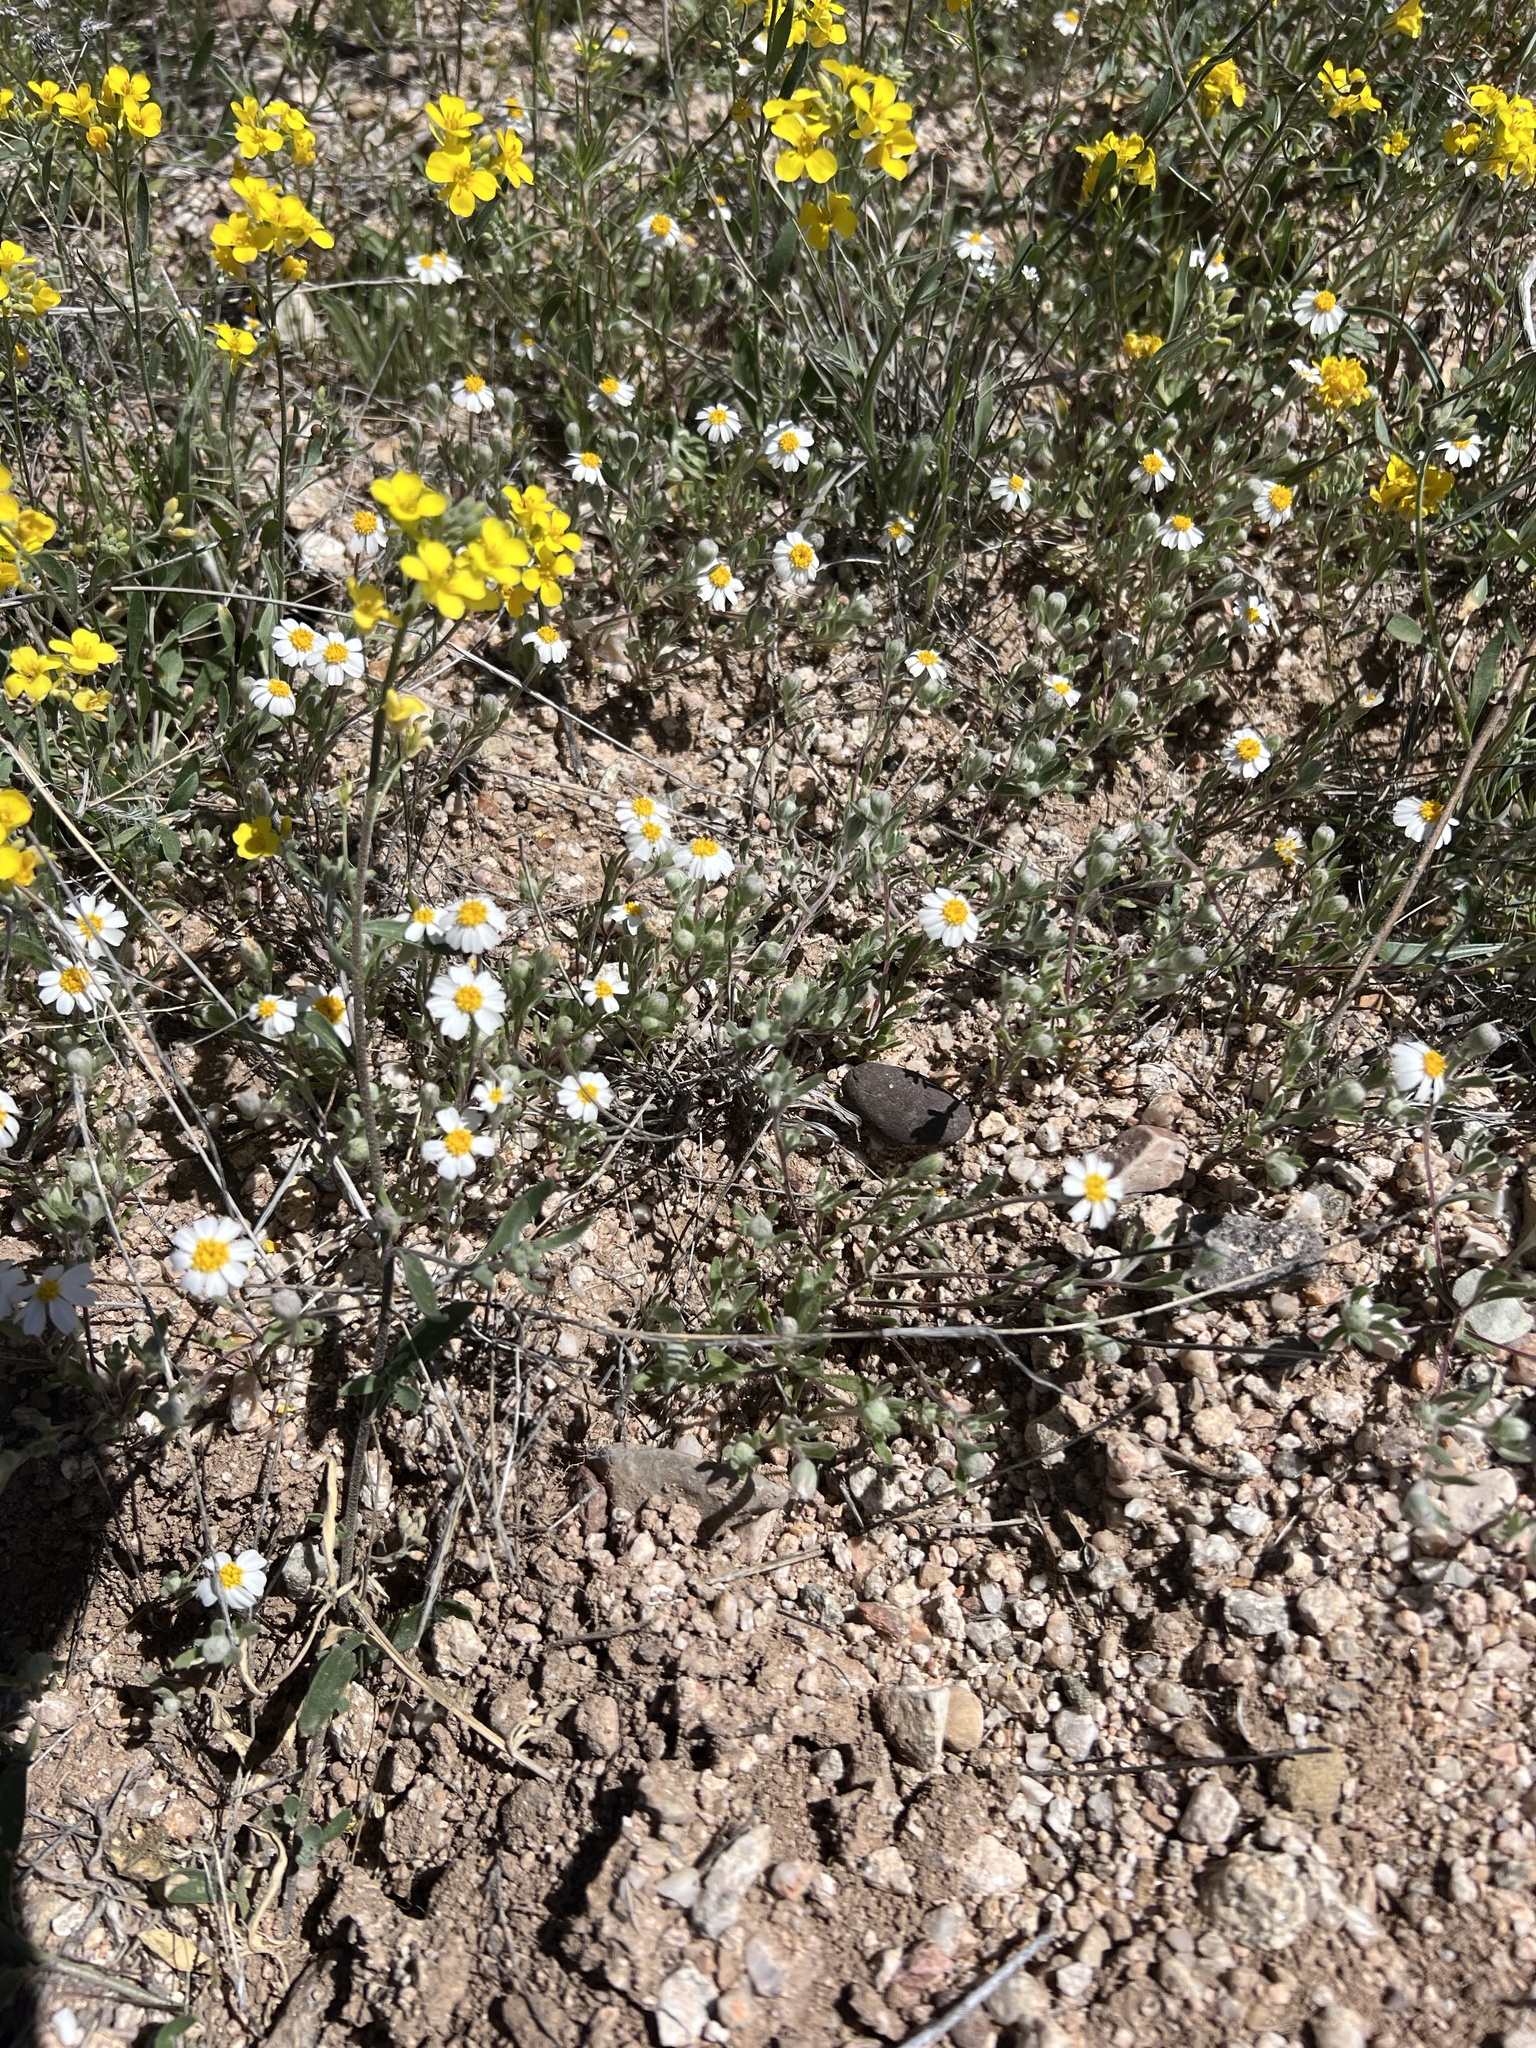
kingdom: Plantae
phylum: Tracheophyta
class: Magnoliopsida
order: Asterales
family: Asteraceae
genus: Eriophyllum
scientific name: Eriophyllum lanosum
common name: White easter-bonnets
